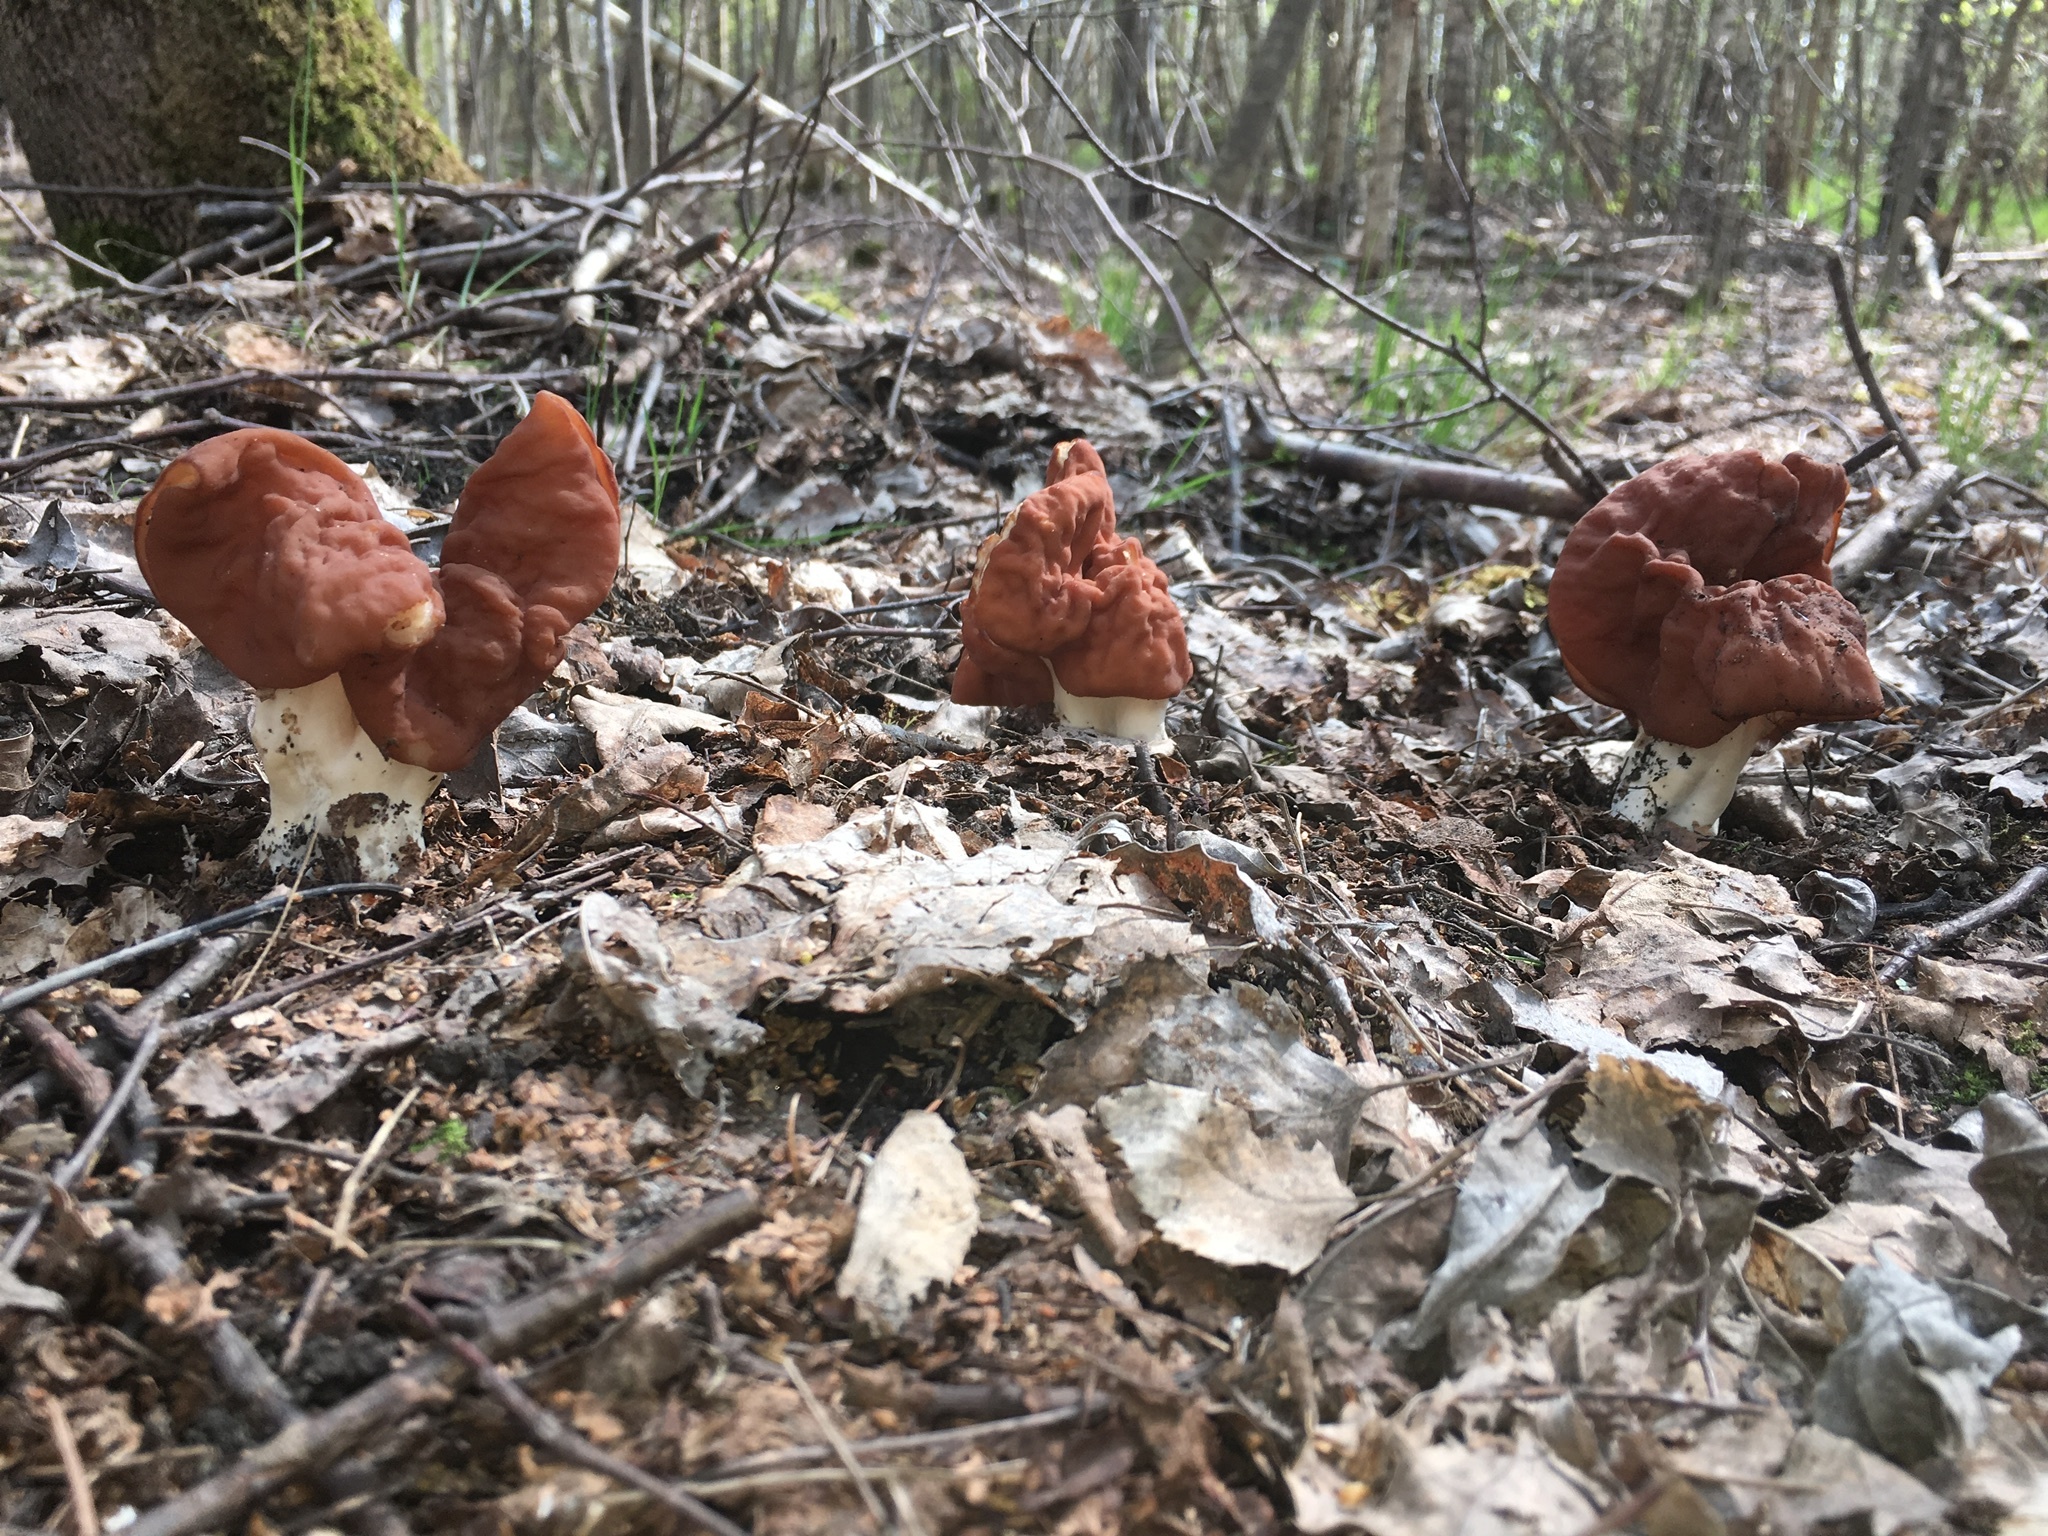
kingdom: Fungi
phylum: Ascomycota
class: Pezizomycetes
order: Pezizales
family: Discinaceae
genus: Discina
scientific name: Discina fastigiata
